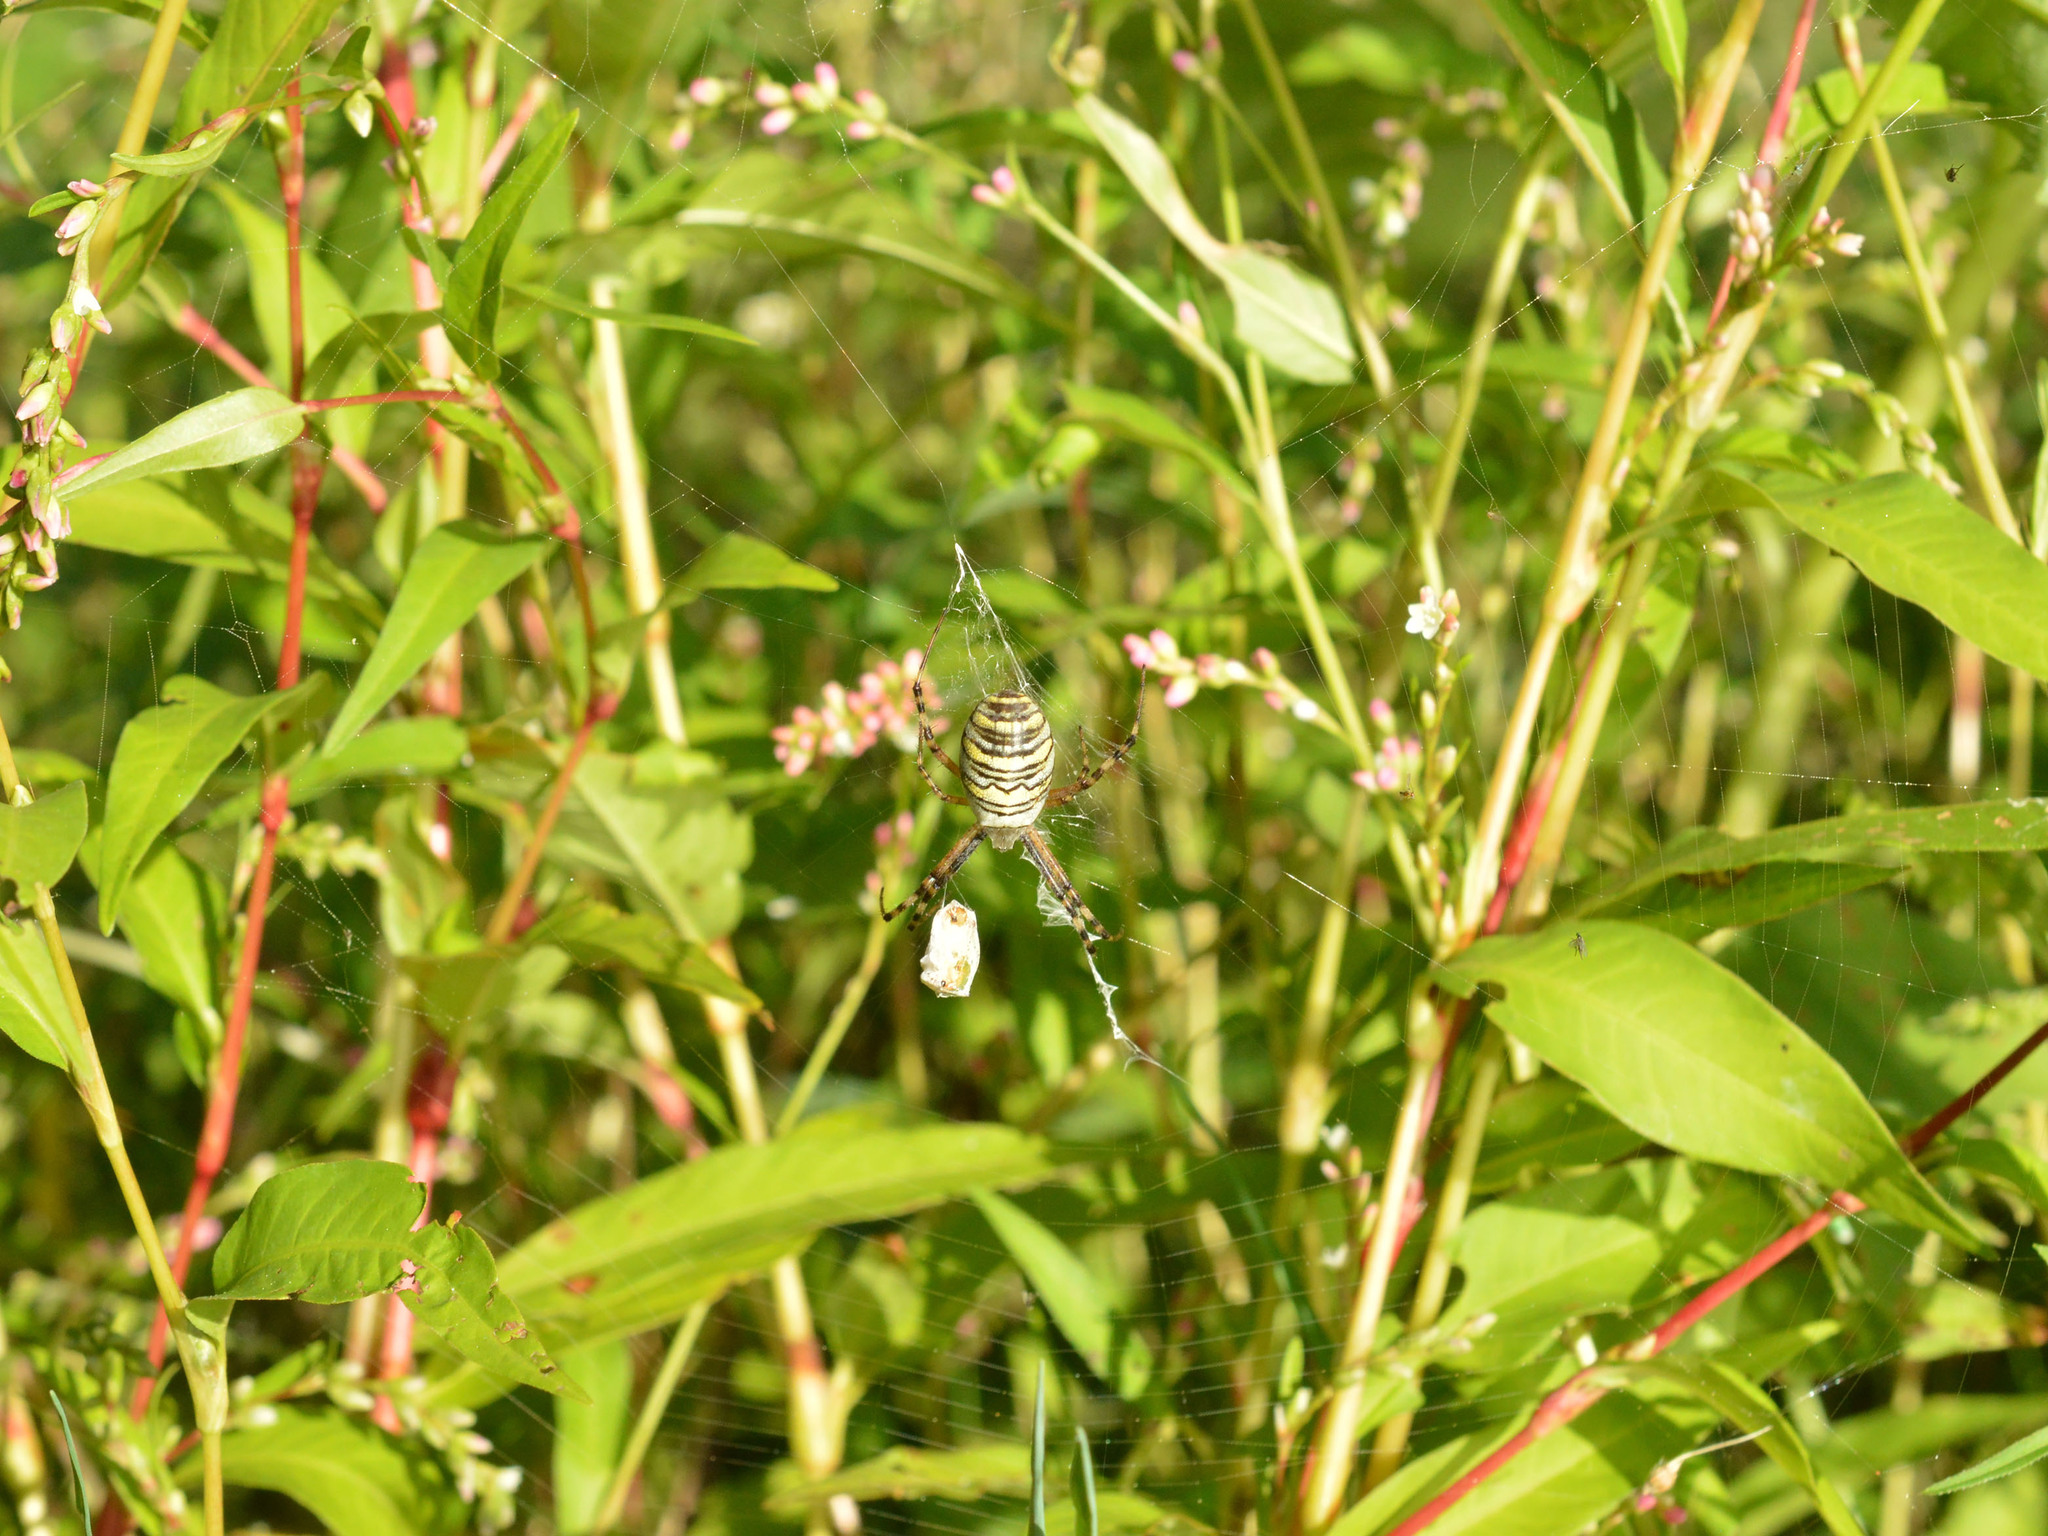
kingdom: Animalia
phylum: Arthropoda
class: Arachnida
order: Araneae
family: Araneidae
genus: Argiope
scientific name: Argiope bruennichi
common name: Wasp spider
